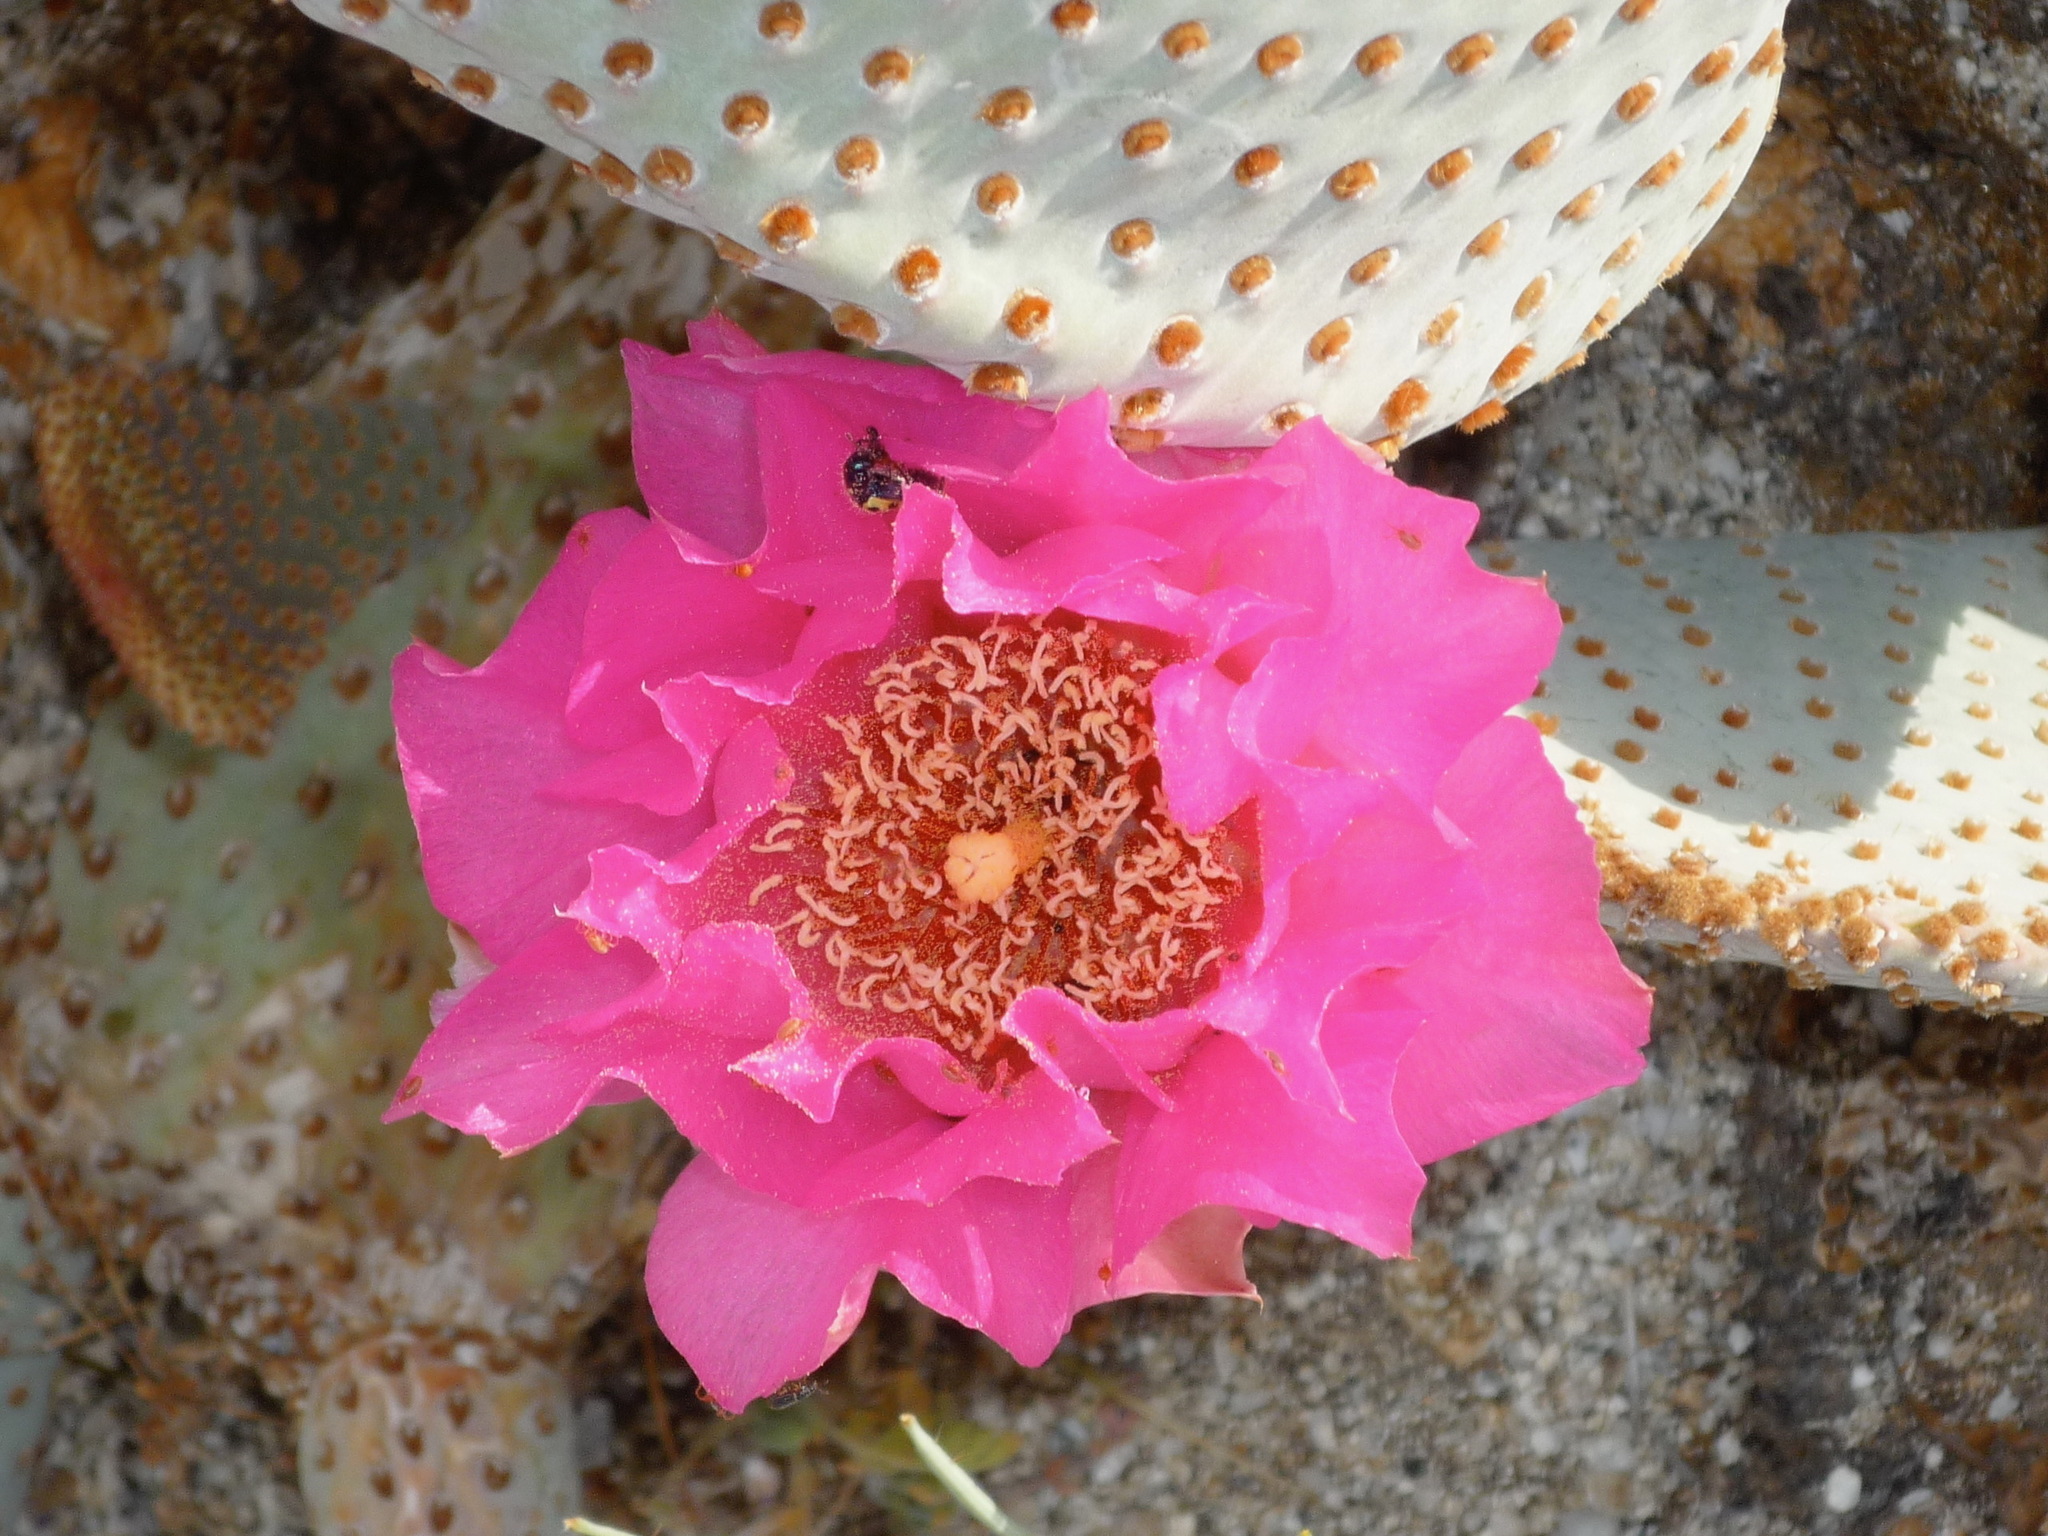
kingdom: Plantae
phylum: Tracheophyta
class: Magnoliopsida
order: Caryophyllales
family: Cactaceae
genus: Opuntia
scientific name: Opuntia basilaris
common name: Beavertail prickly-pear
